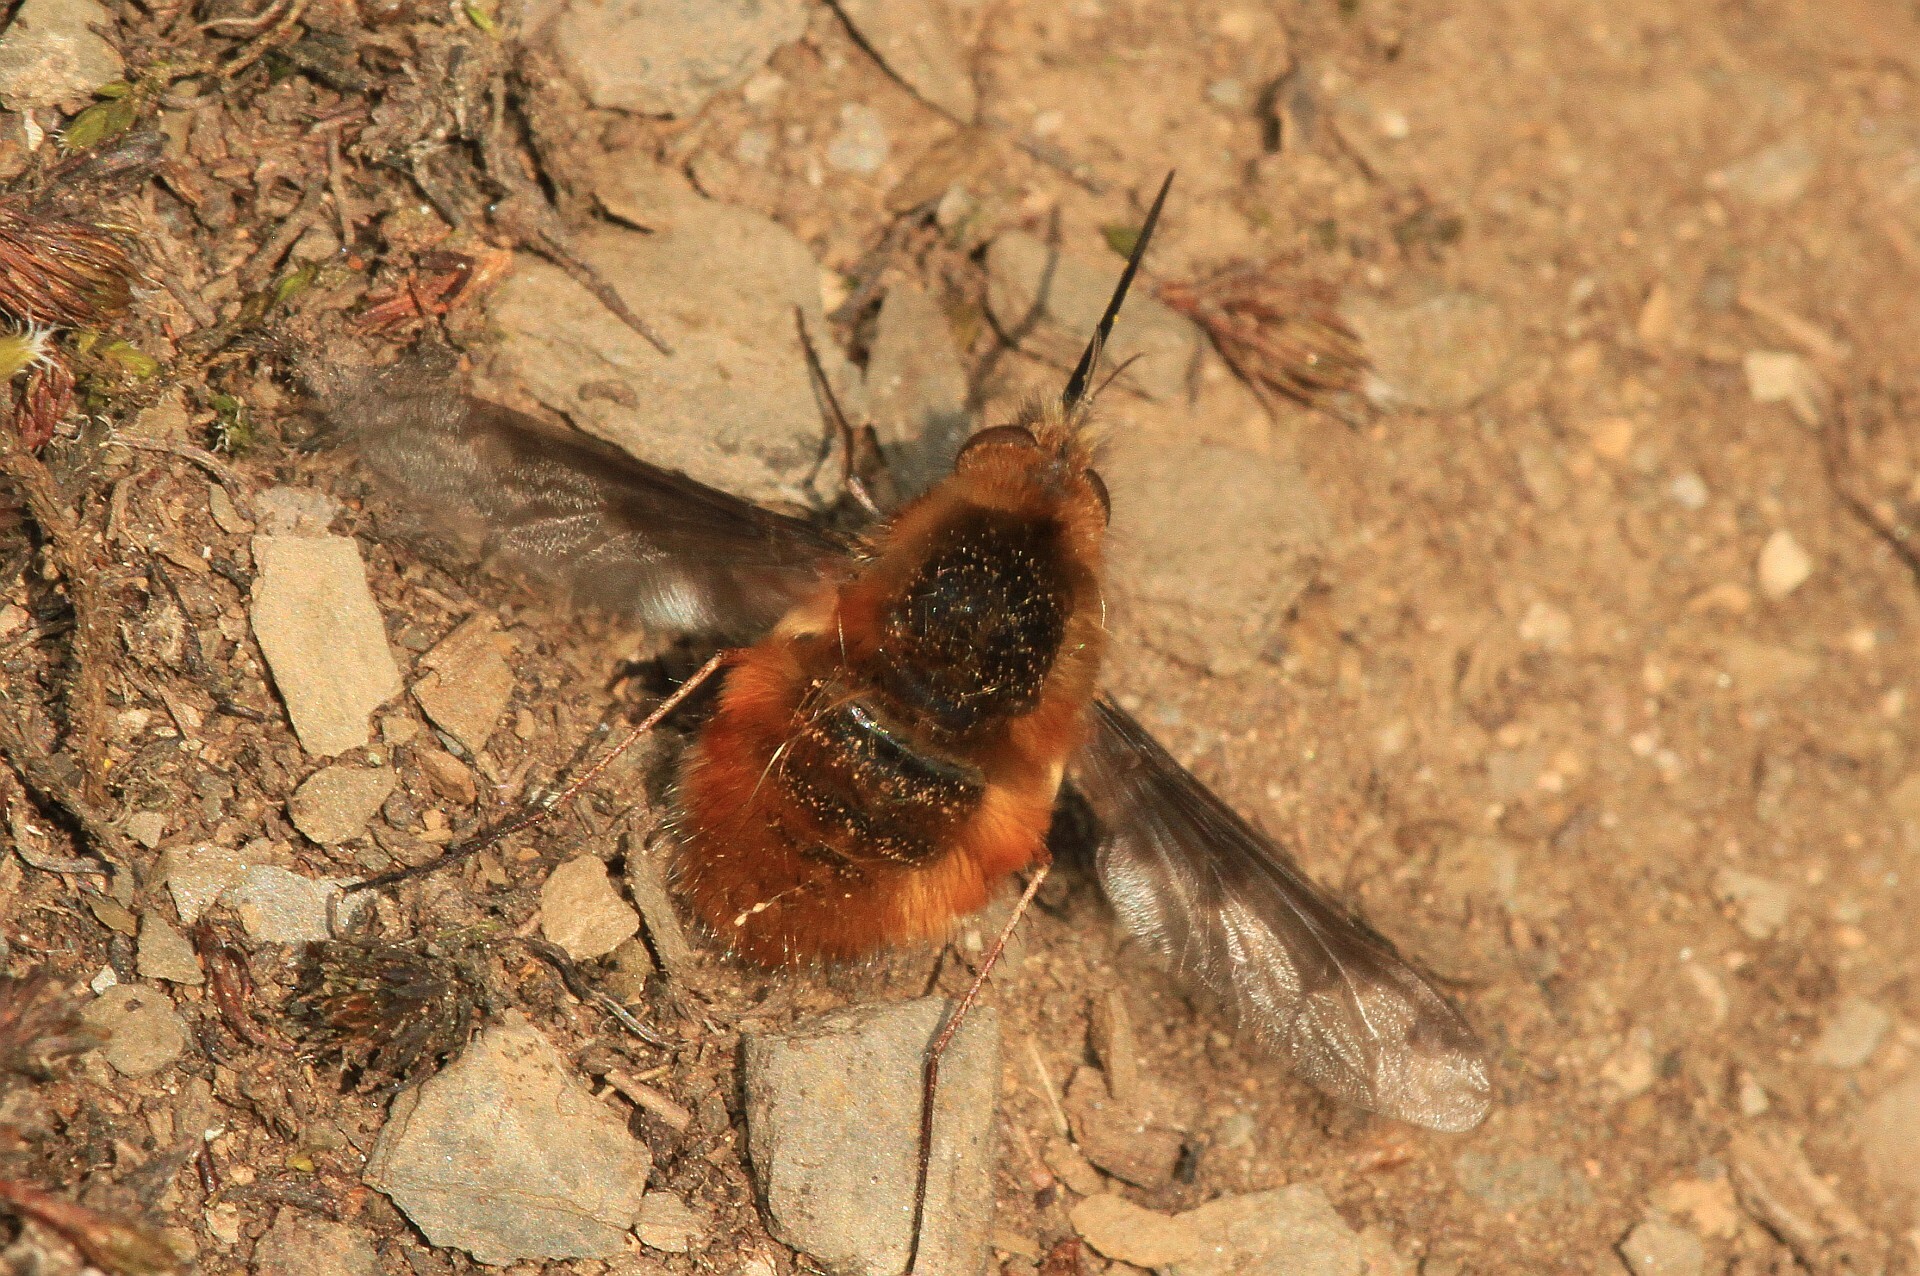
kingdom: Animalia
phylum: Arthropoda
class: Insecta
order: Diptera
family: Bombyliidae
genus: Bombylius
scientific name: Bombylius major
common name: Bee fly
